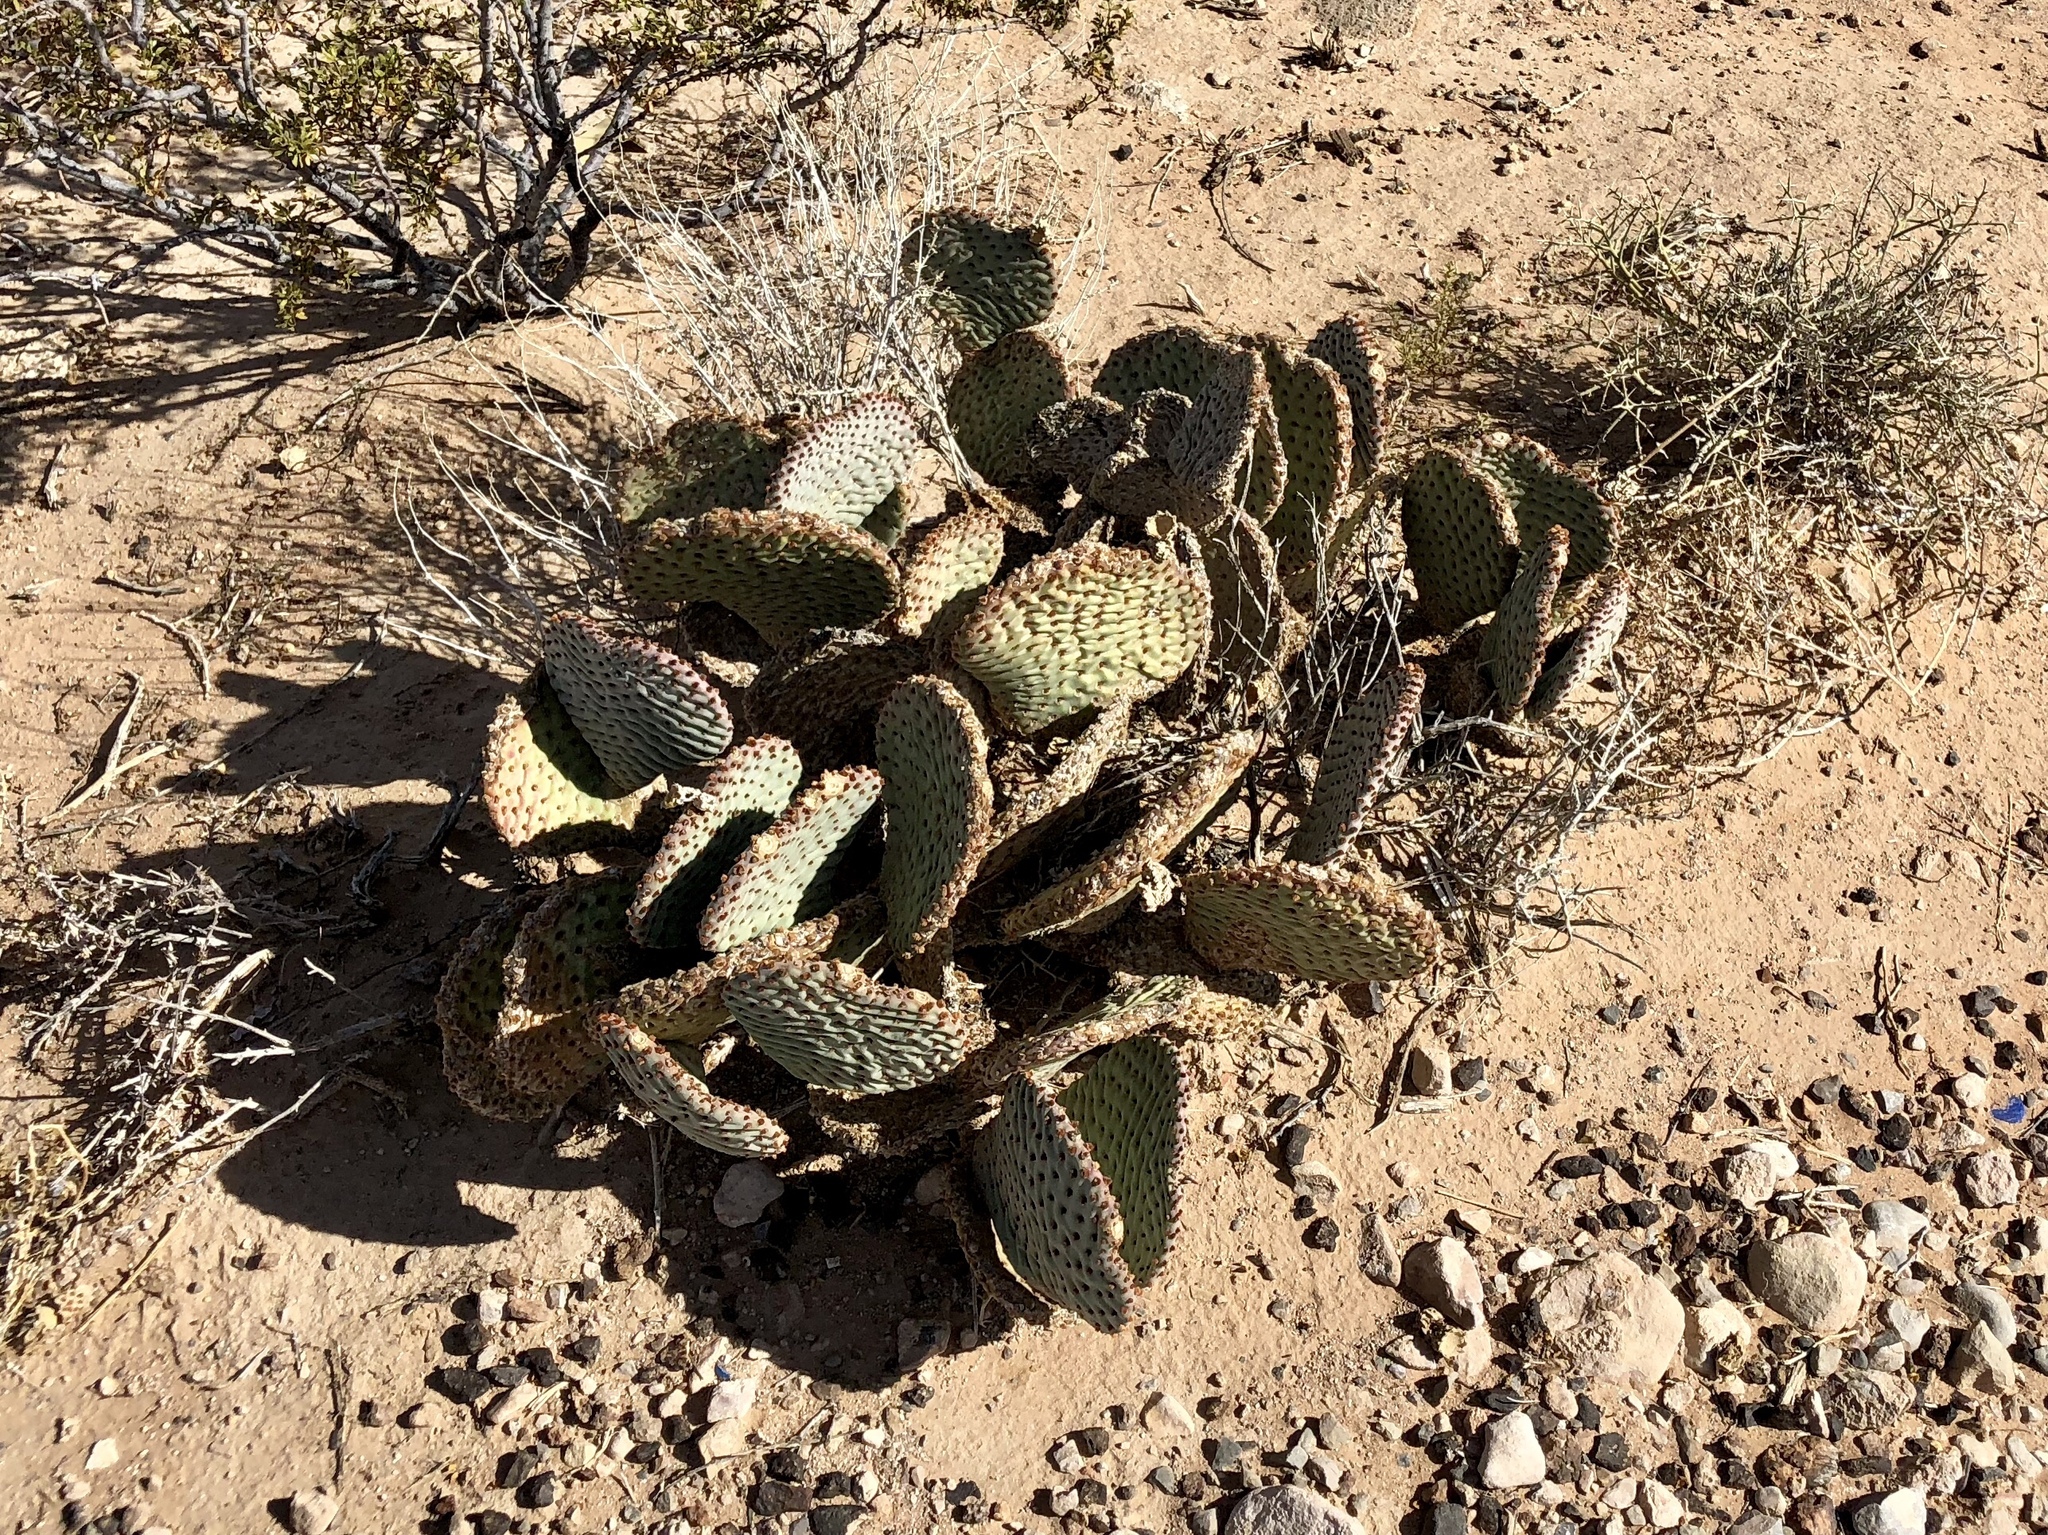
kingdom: Plantae
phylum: Tracheophyta
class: Magnoliopsida
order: Caryophyllales
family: Cactaceae
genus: Opuntia
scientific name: Opuntia basilaris
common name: Beavertail prickly-pear
